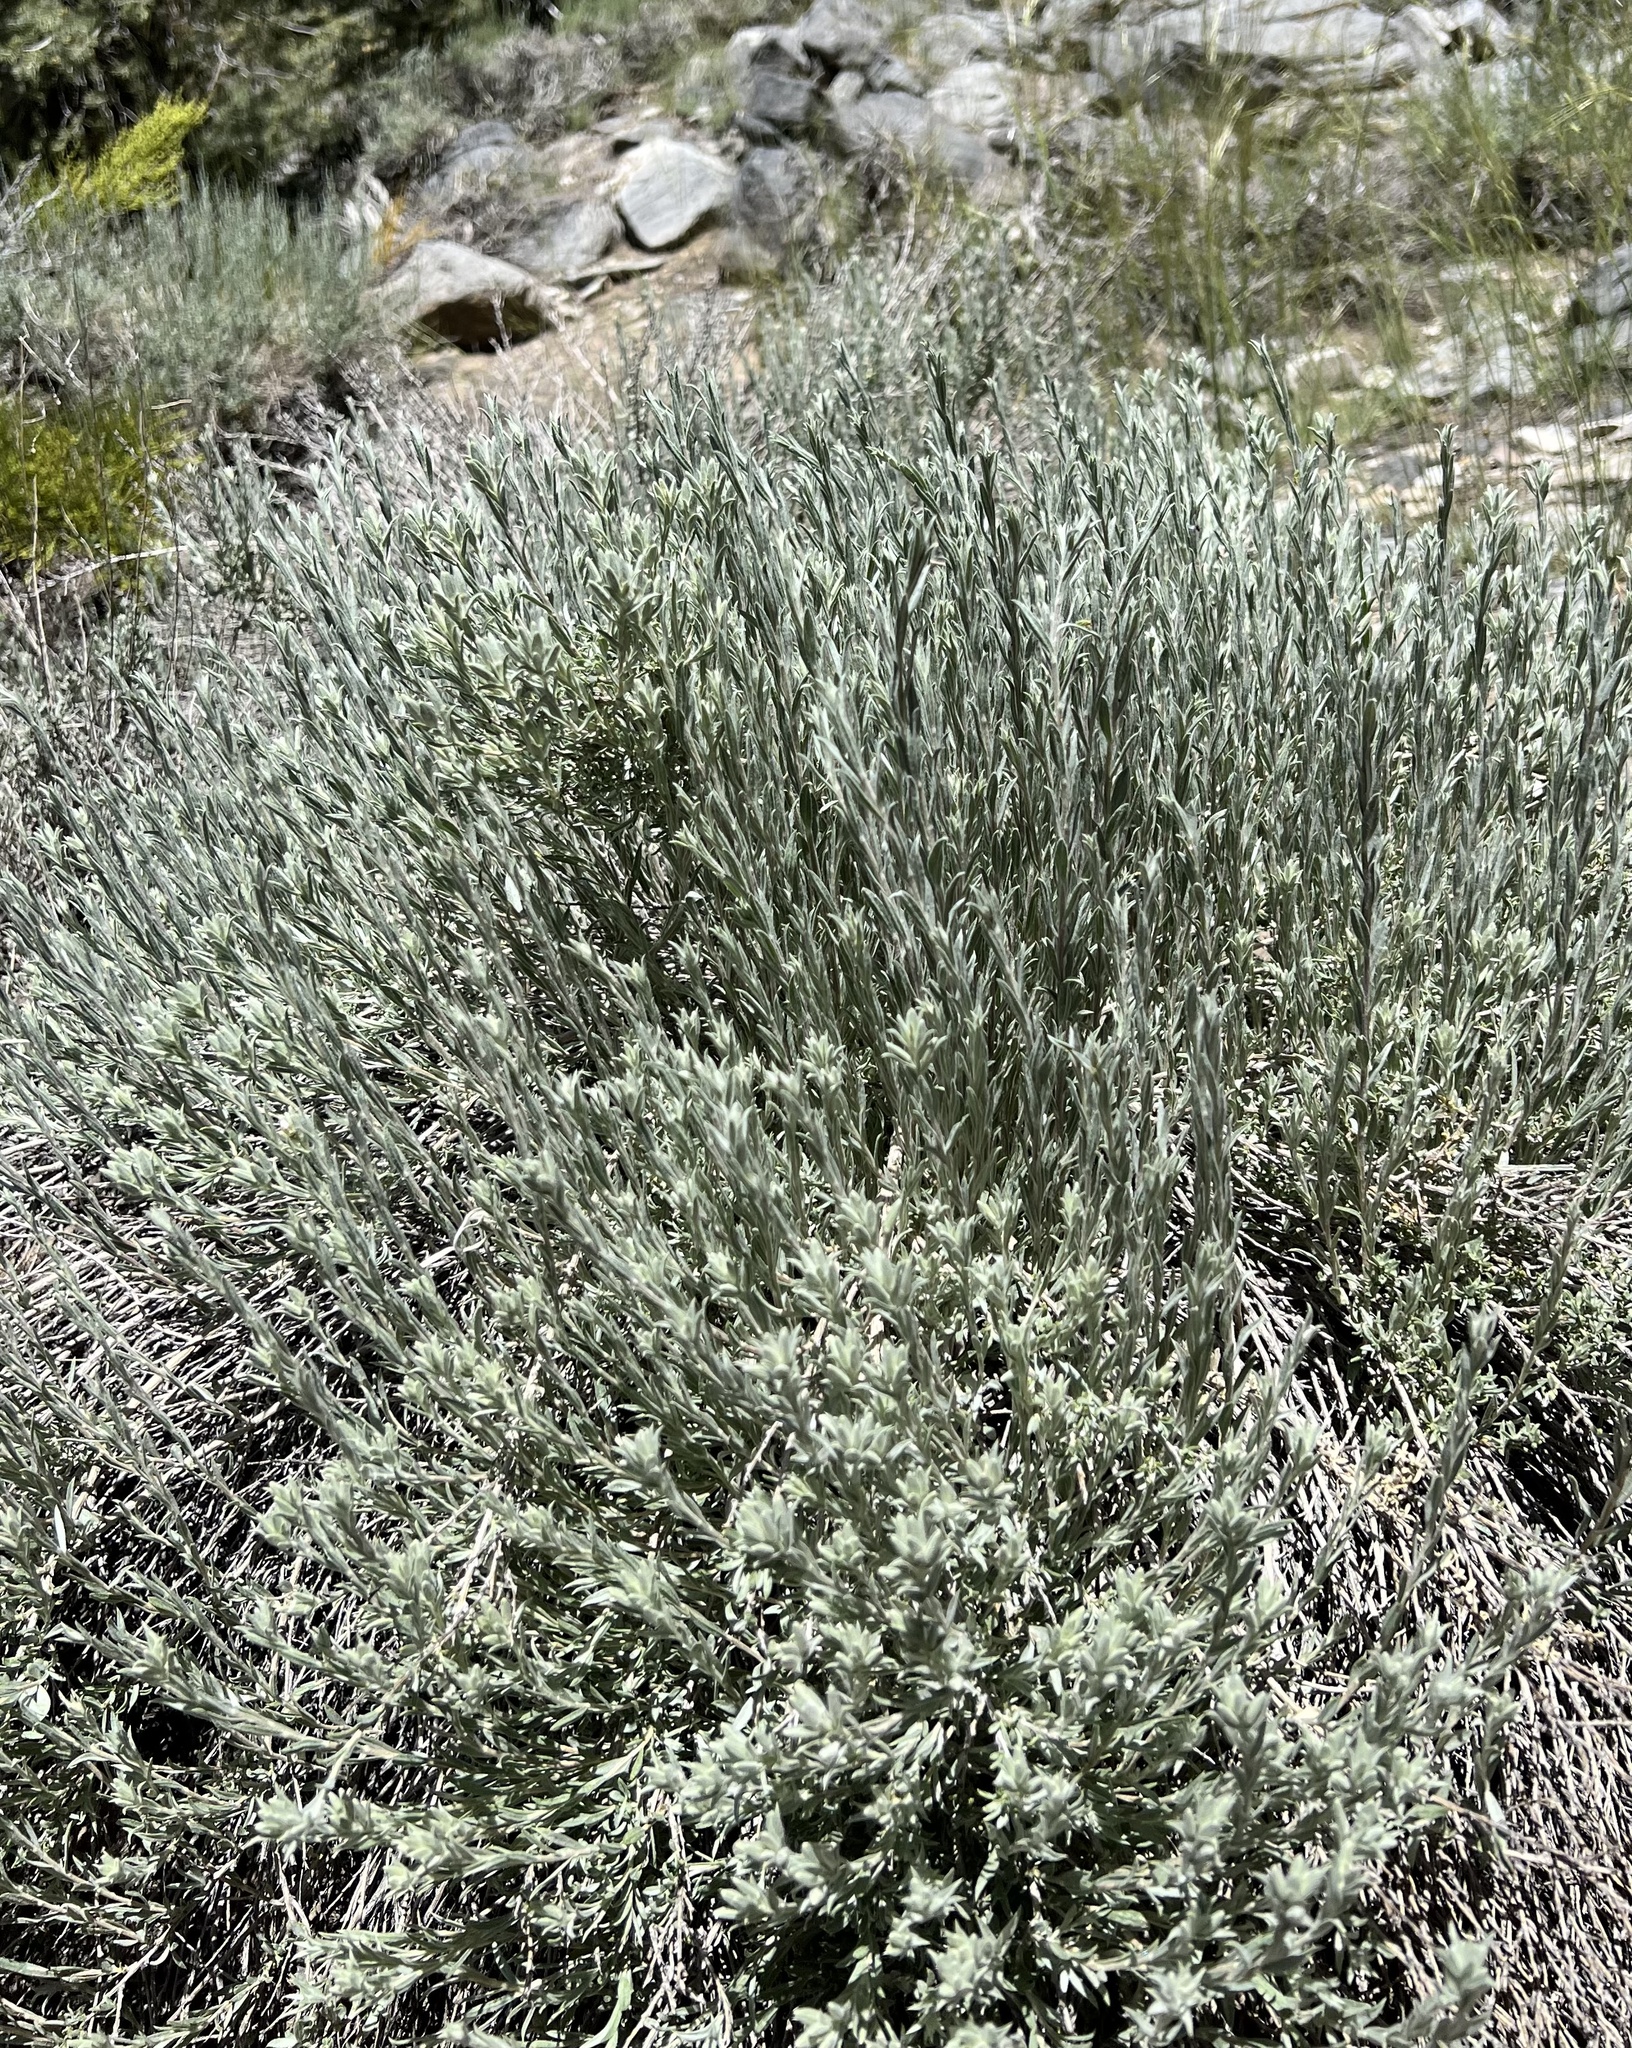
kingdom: Plantae
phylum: Tracheophyta
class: Magnoliopsida
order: Asterales
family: Asteraceae
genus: Tetradymia
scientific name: Tetradymia canescens
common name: Spineless horsebrush
